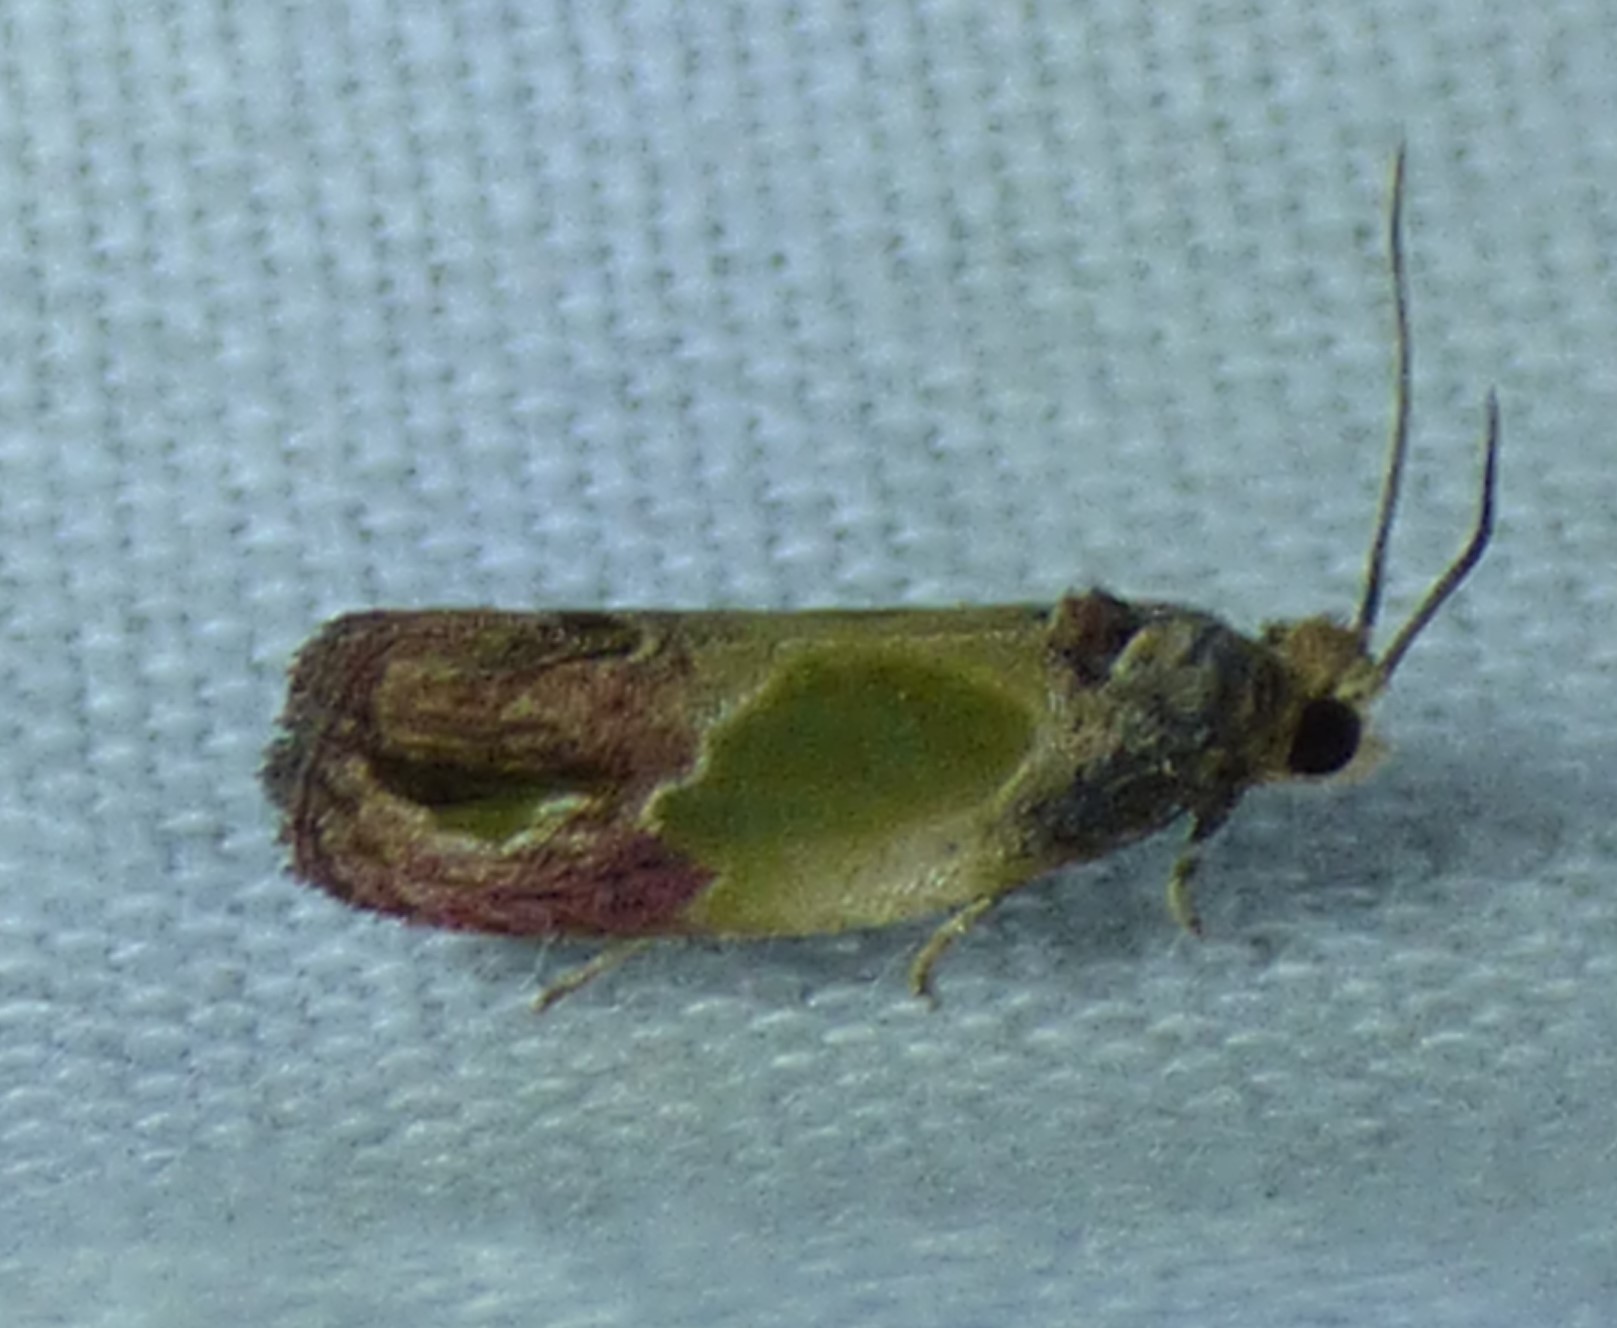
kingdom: Animalia
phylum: Arthropoda
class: Insecta
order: Lepidoptera
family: Tortricidae
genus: Eumarozia
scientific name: Eumarozia malachitana
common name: Sculptured moth
